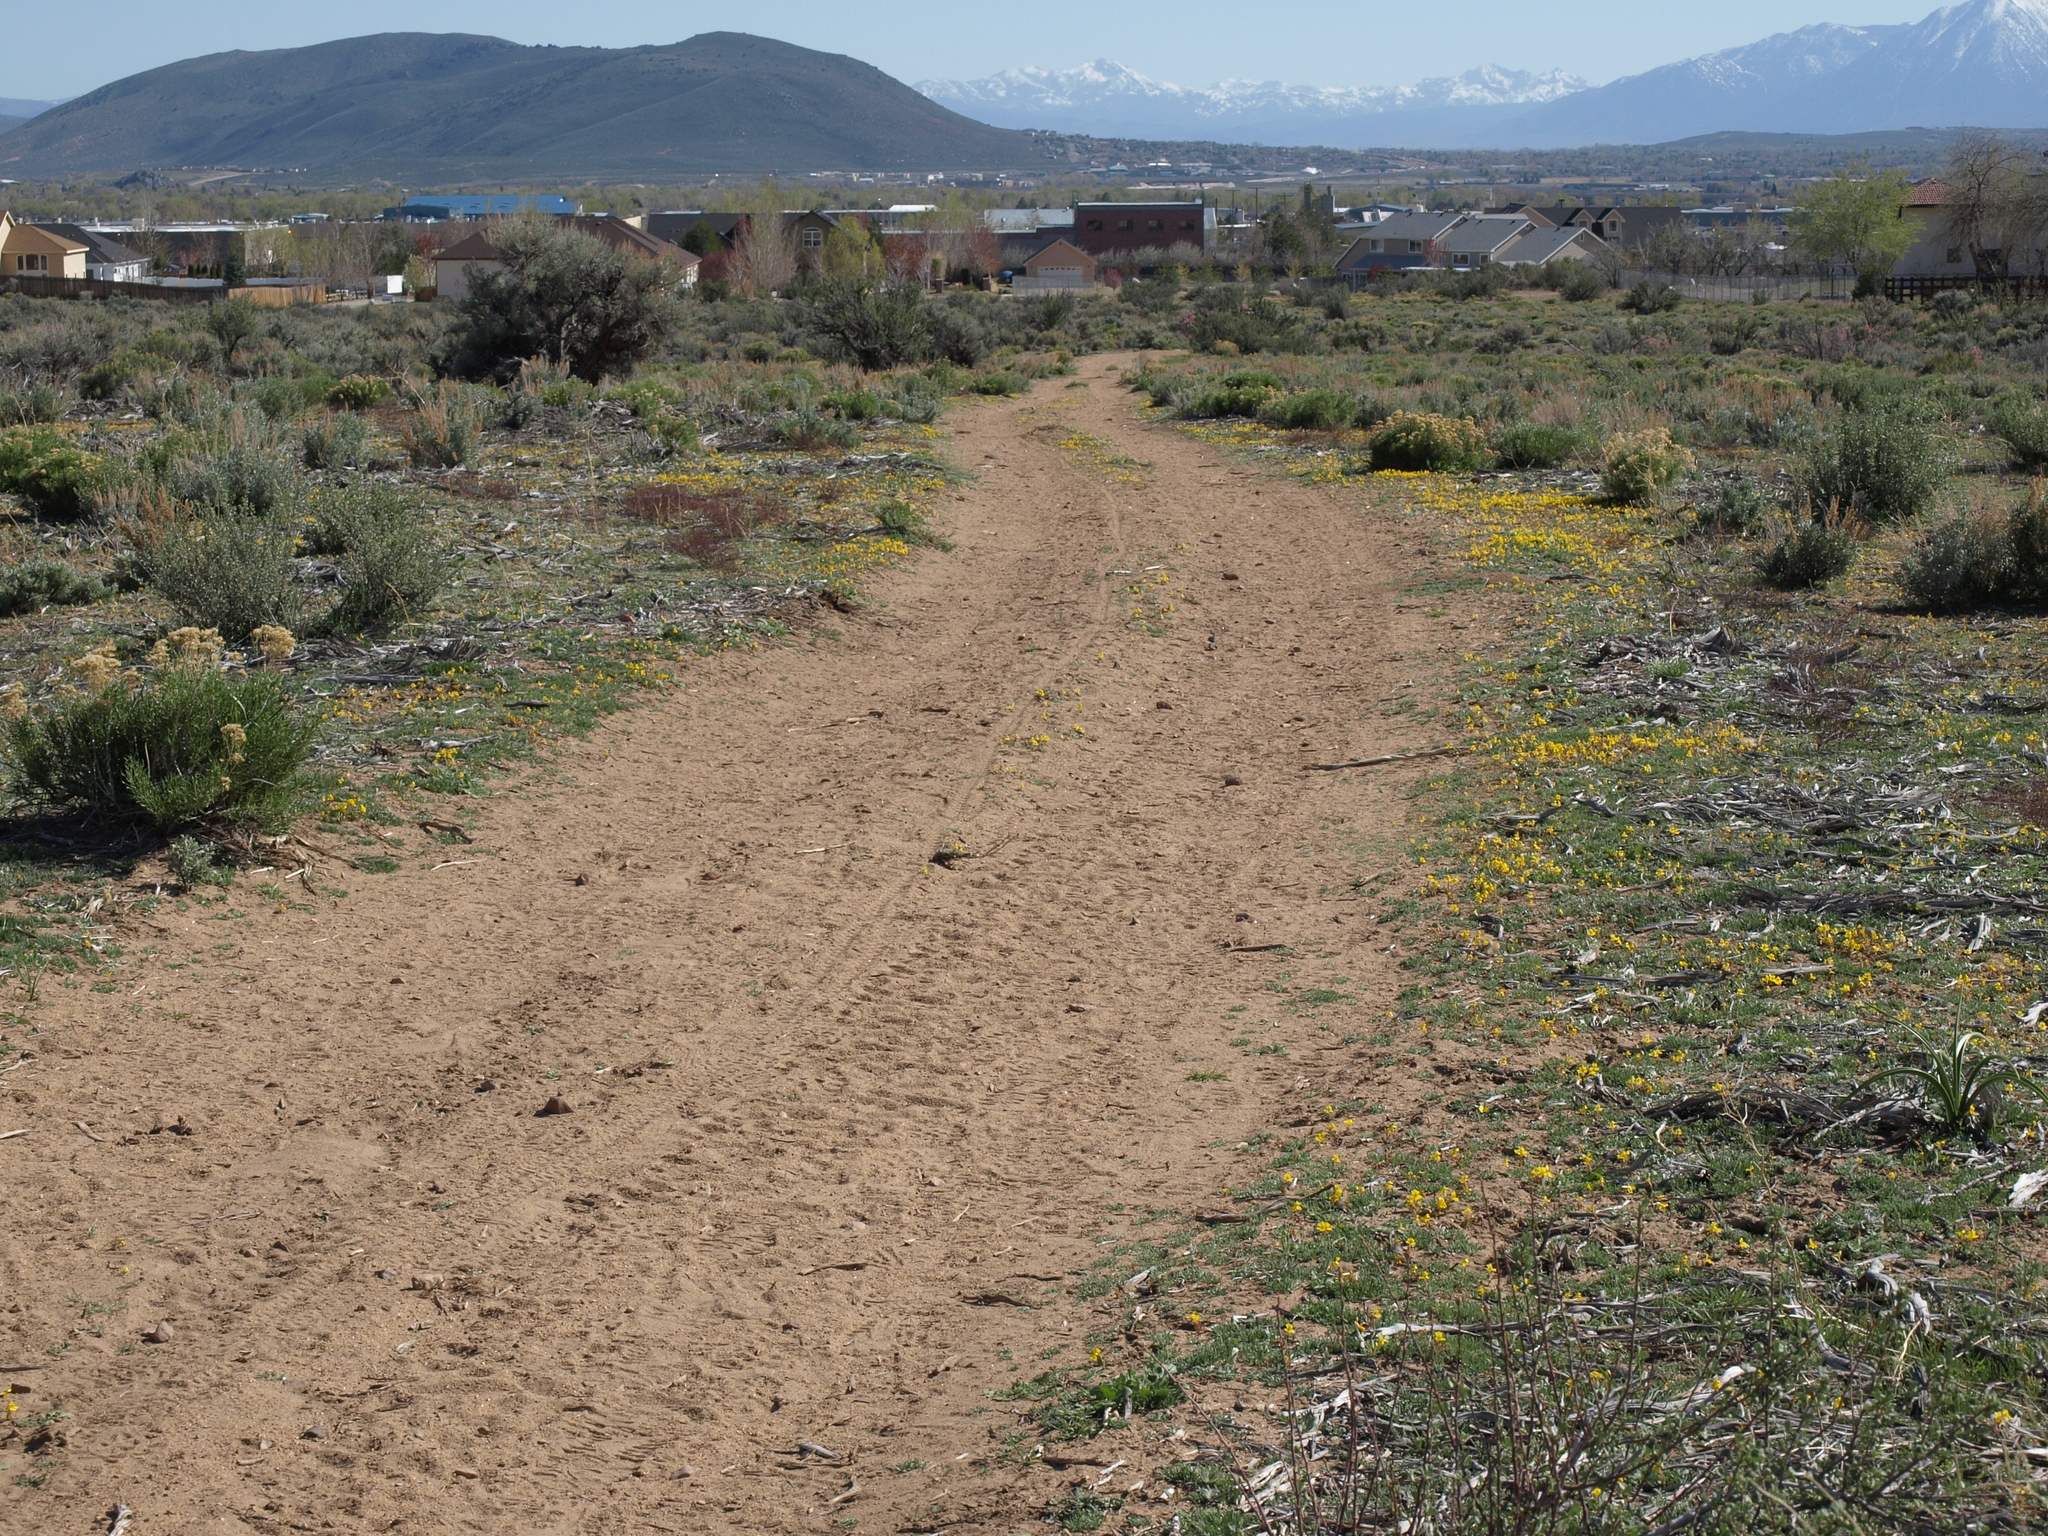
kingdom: Plantae
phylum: Tracheophyta
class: Magnoliopsida
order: Lamiales
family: Phrymaceae
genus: Erythranthe
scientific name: Erythranthe carsonensis
